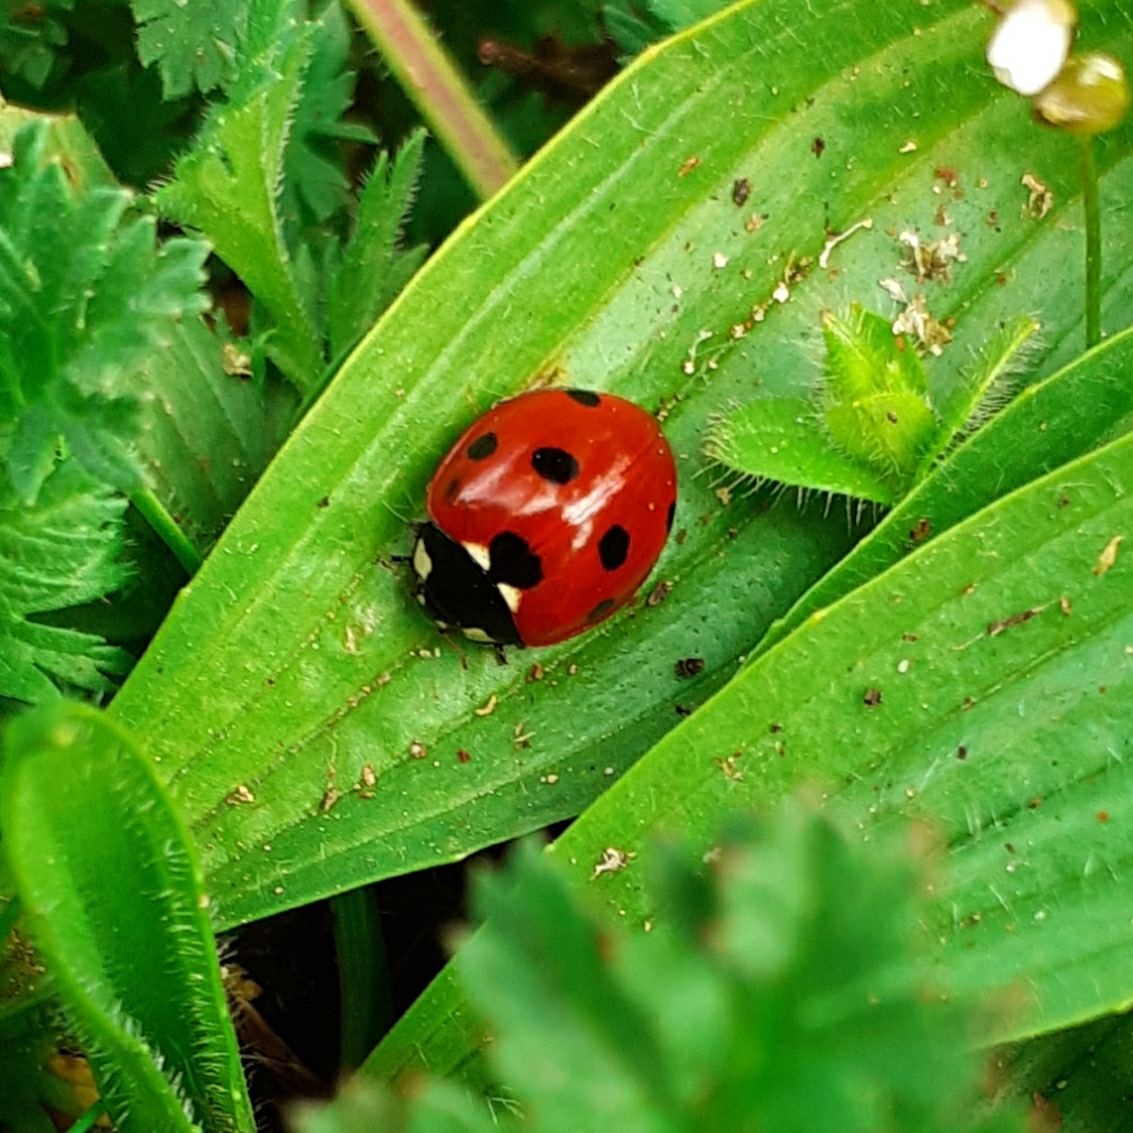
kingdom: Animalia
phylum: Arthropoda
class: Insecta
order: Coleoptera
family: Coccinellidae
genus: Coccinella
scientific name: Coccinella septempunctata
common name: Sevenspotted lady beetle
